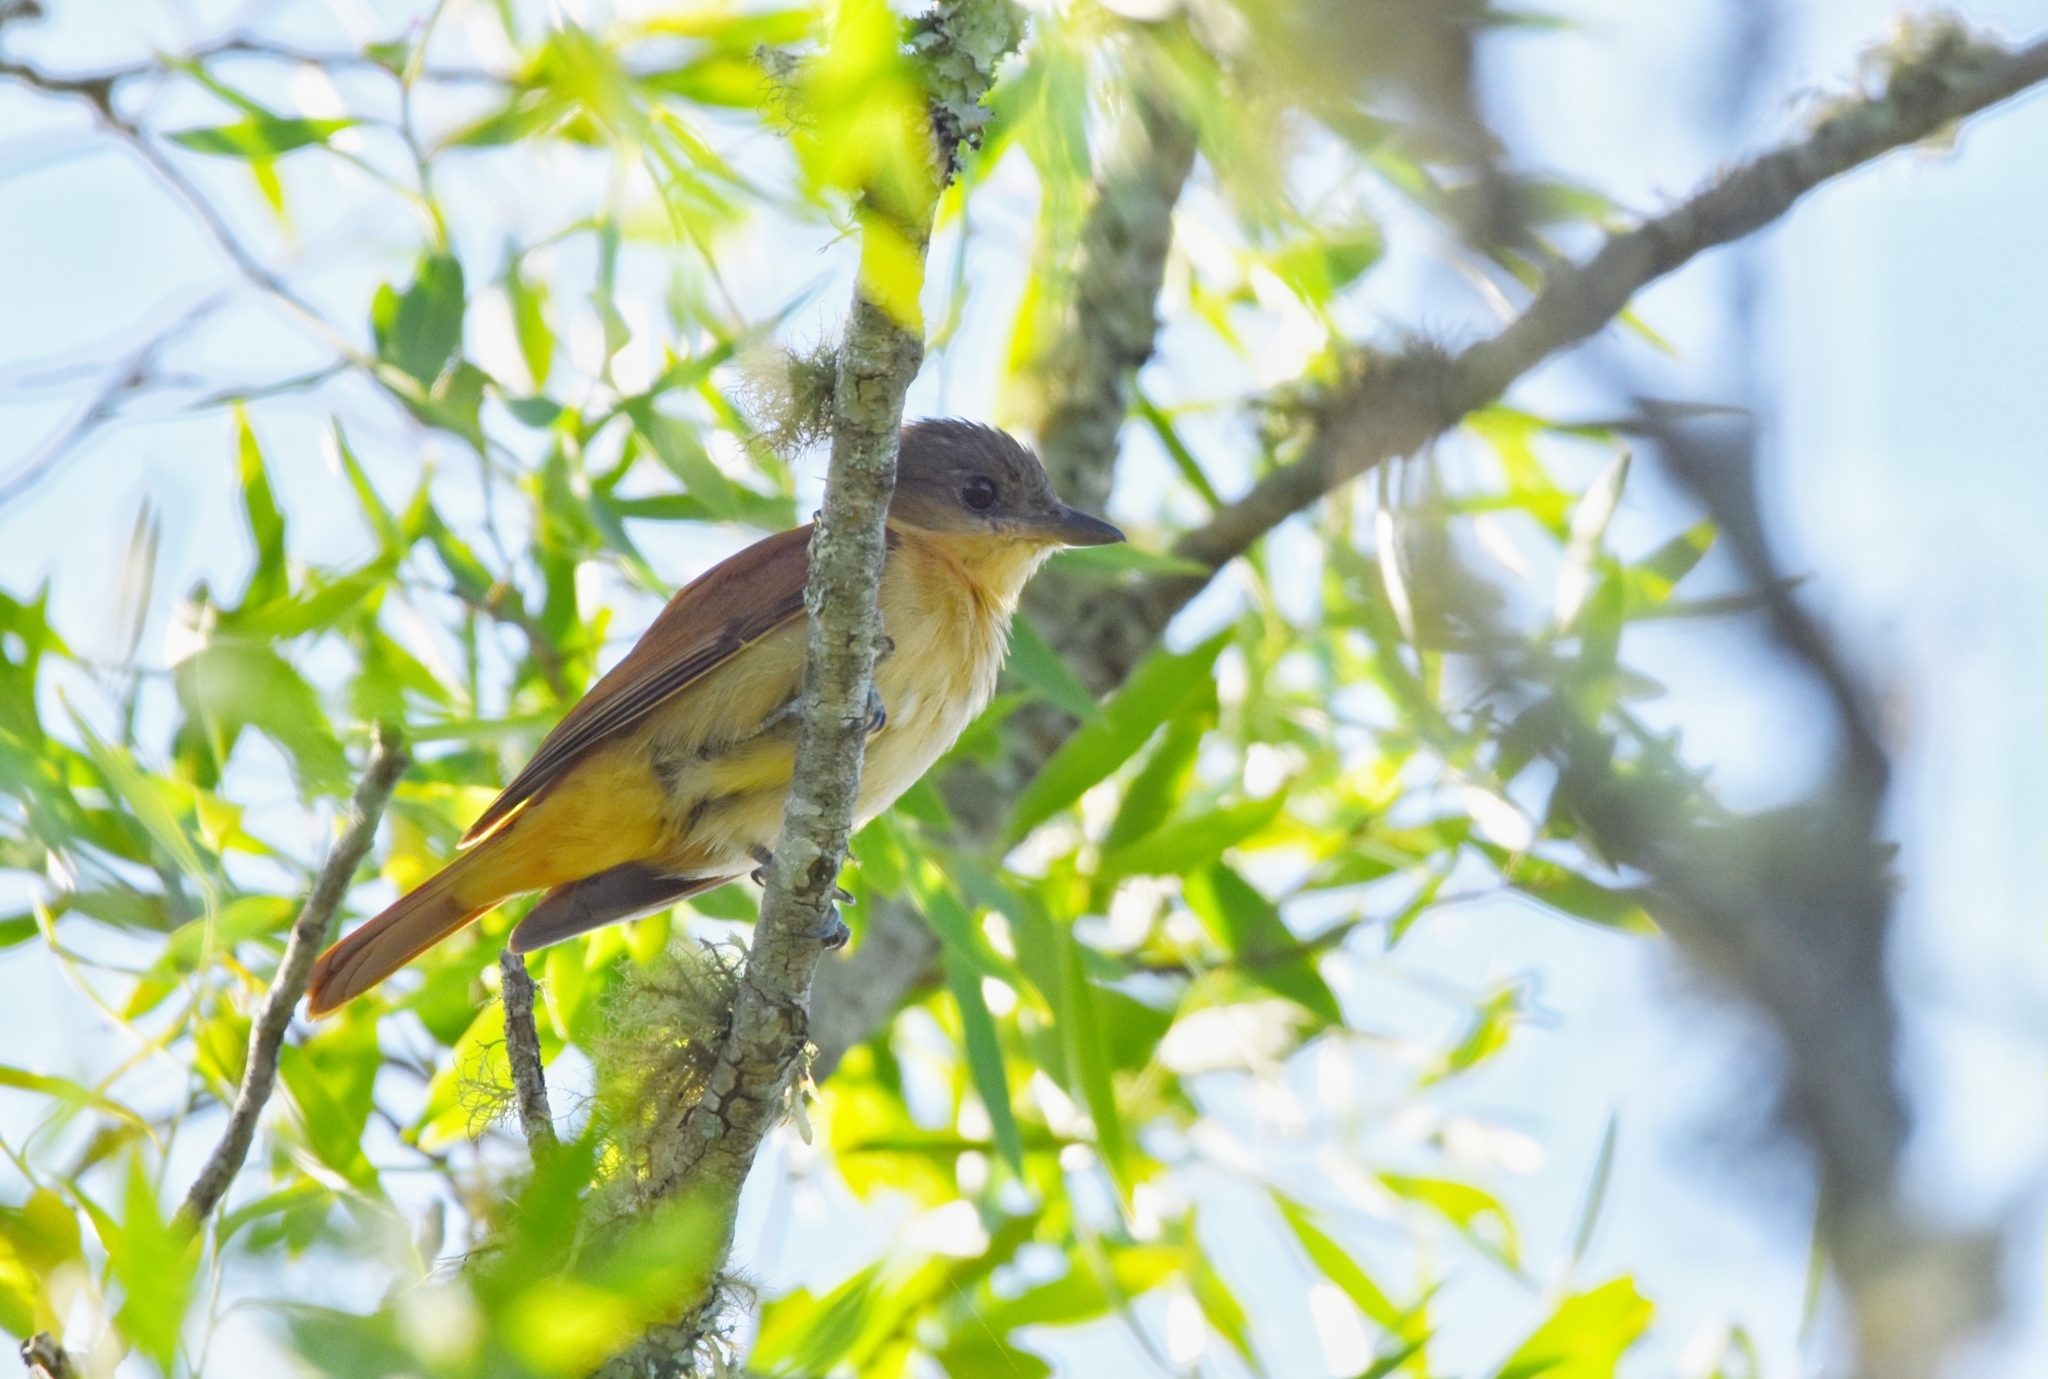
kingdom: Animalia
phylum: Chordata
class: Aves
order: Passeriformes
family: Cotingidae
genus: Pachyramphus
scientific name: Pachyramphus validus
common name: Crested becard
